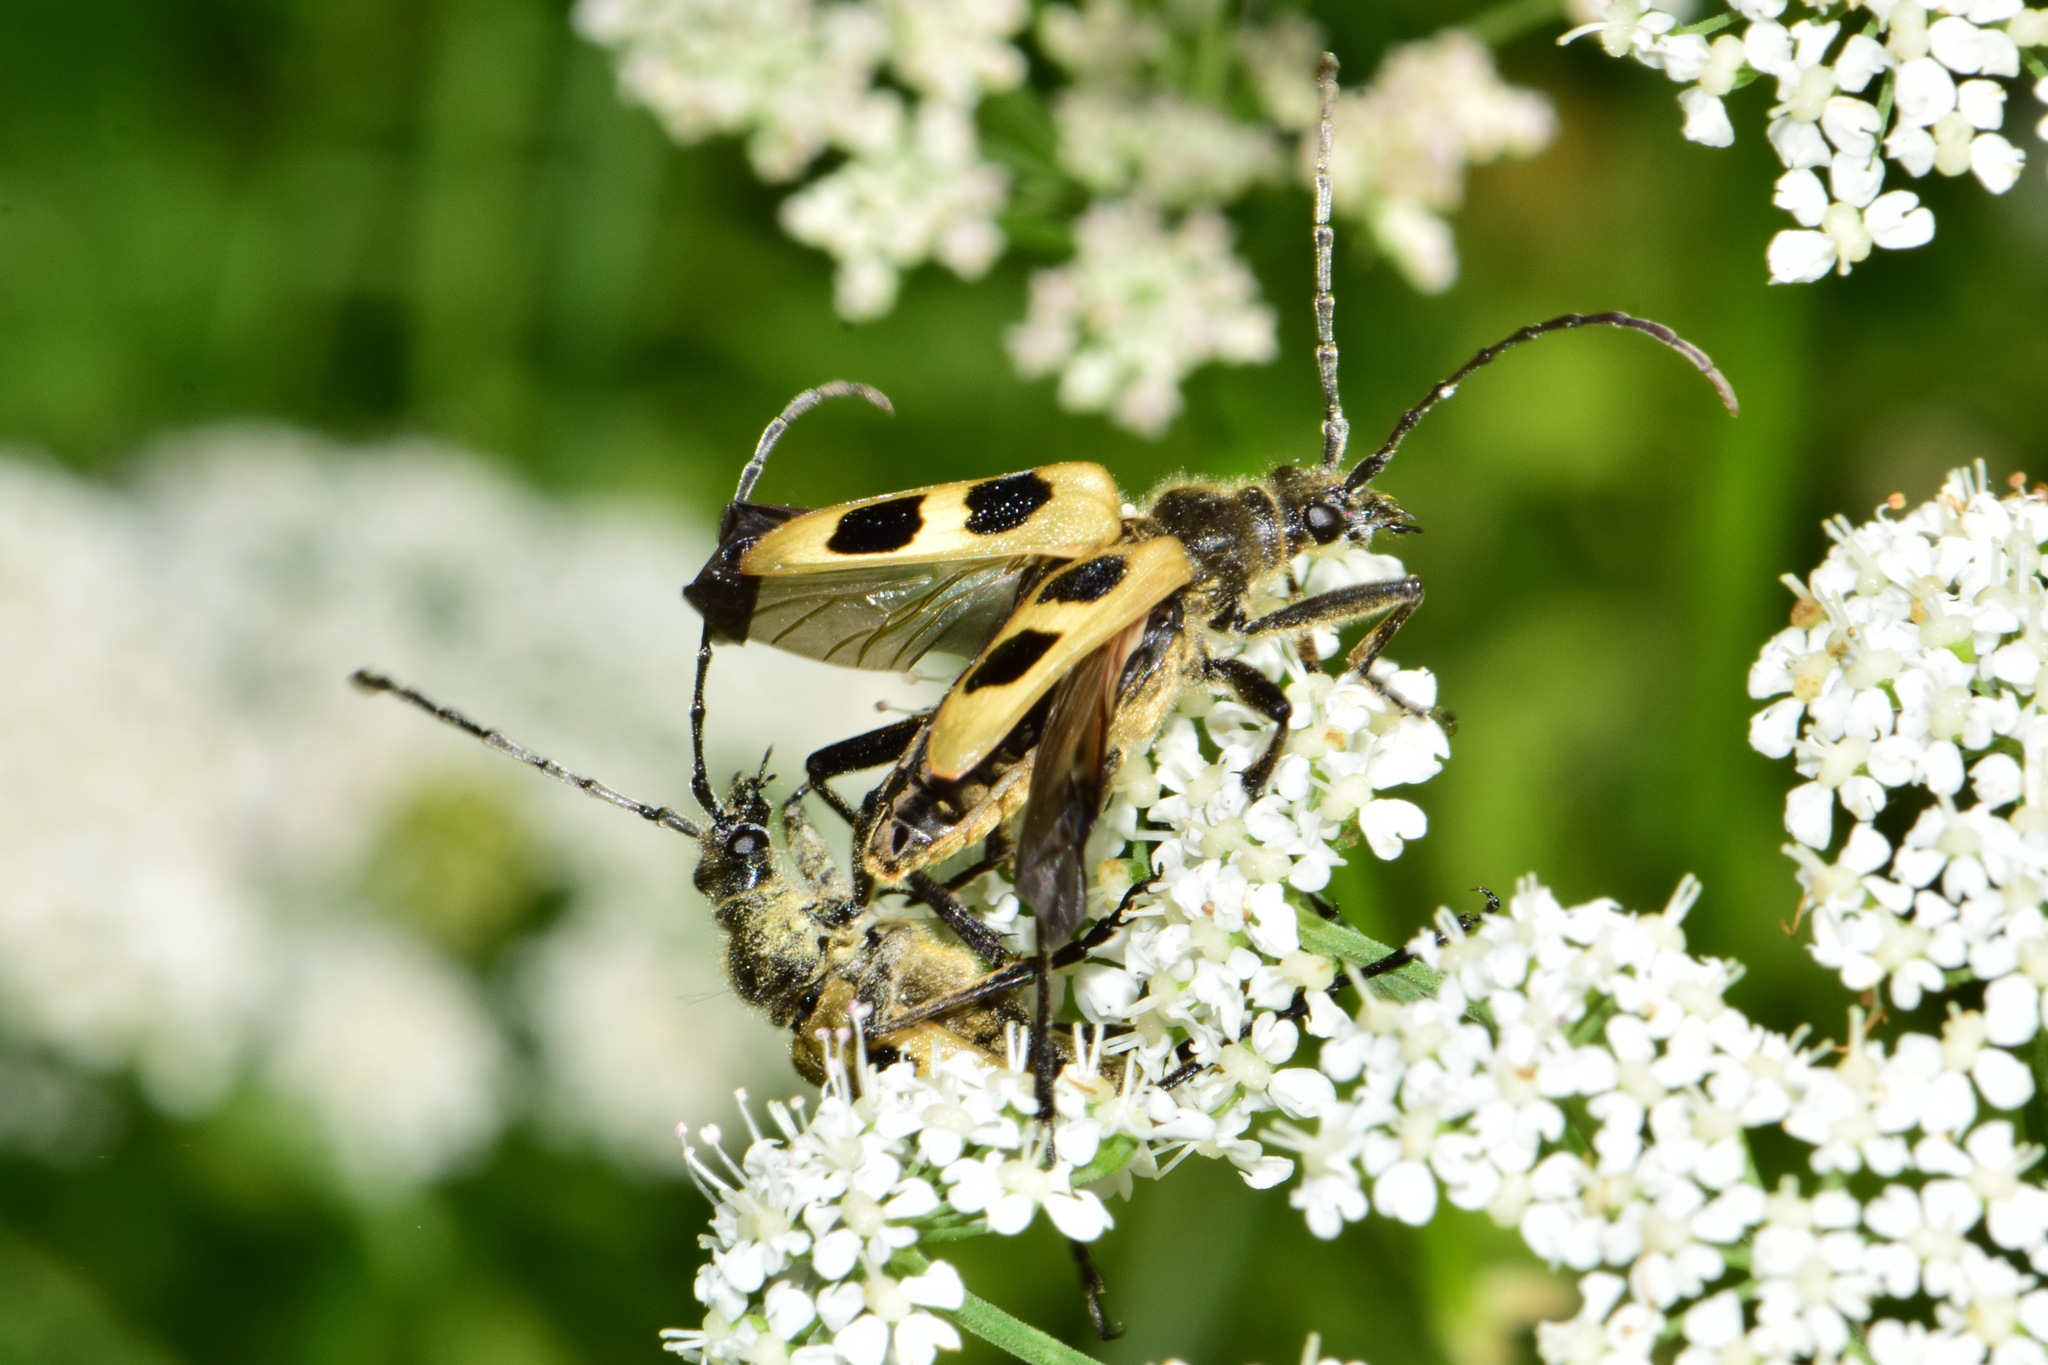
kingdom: Animalia
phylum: Arthropoda
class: Insecta
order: Coleoptera
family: Cerambycidae
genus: Pachyta
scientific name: Pachyta quadrimaculata
